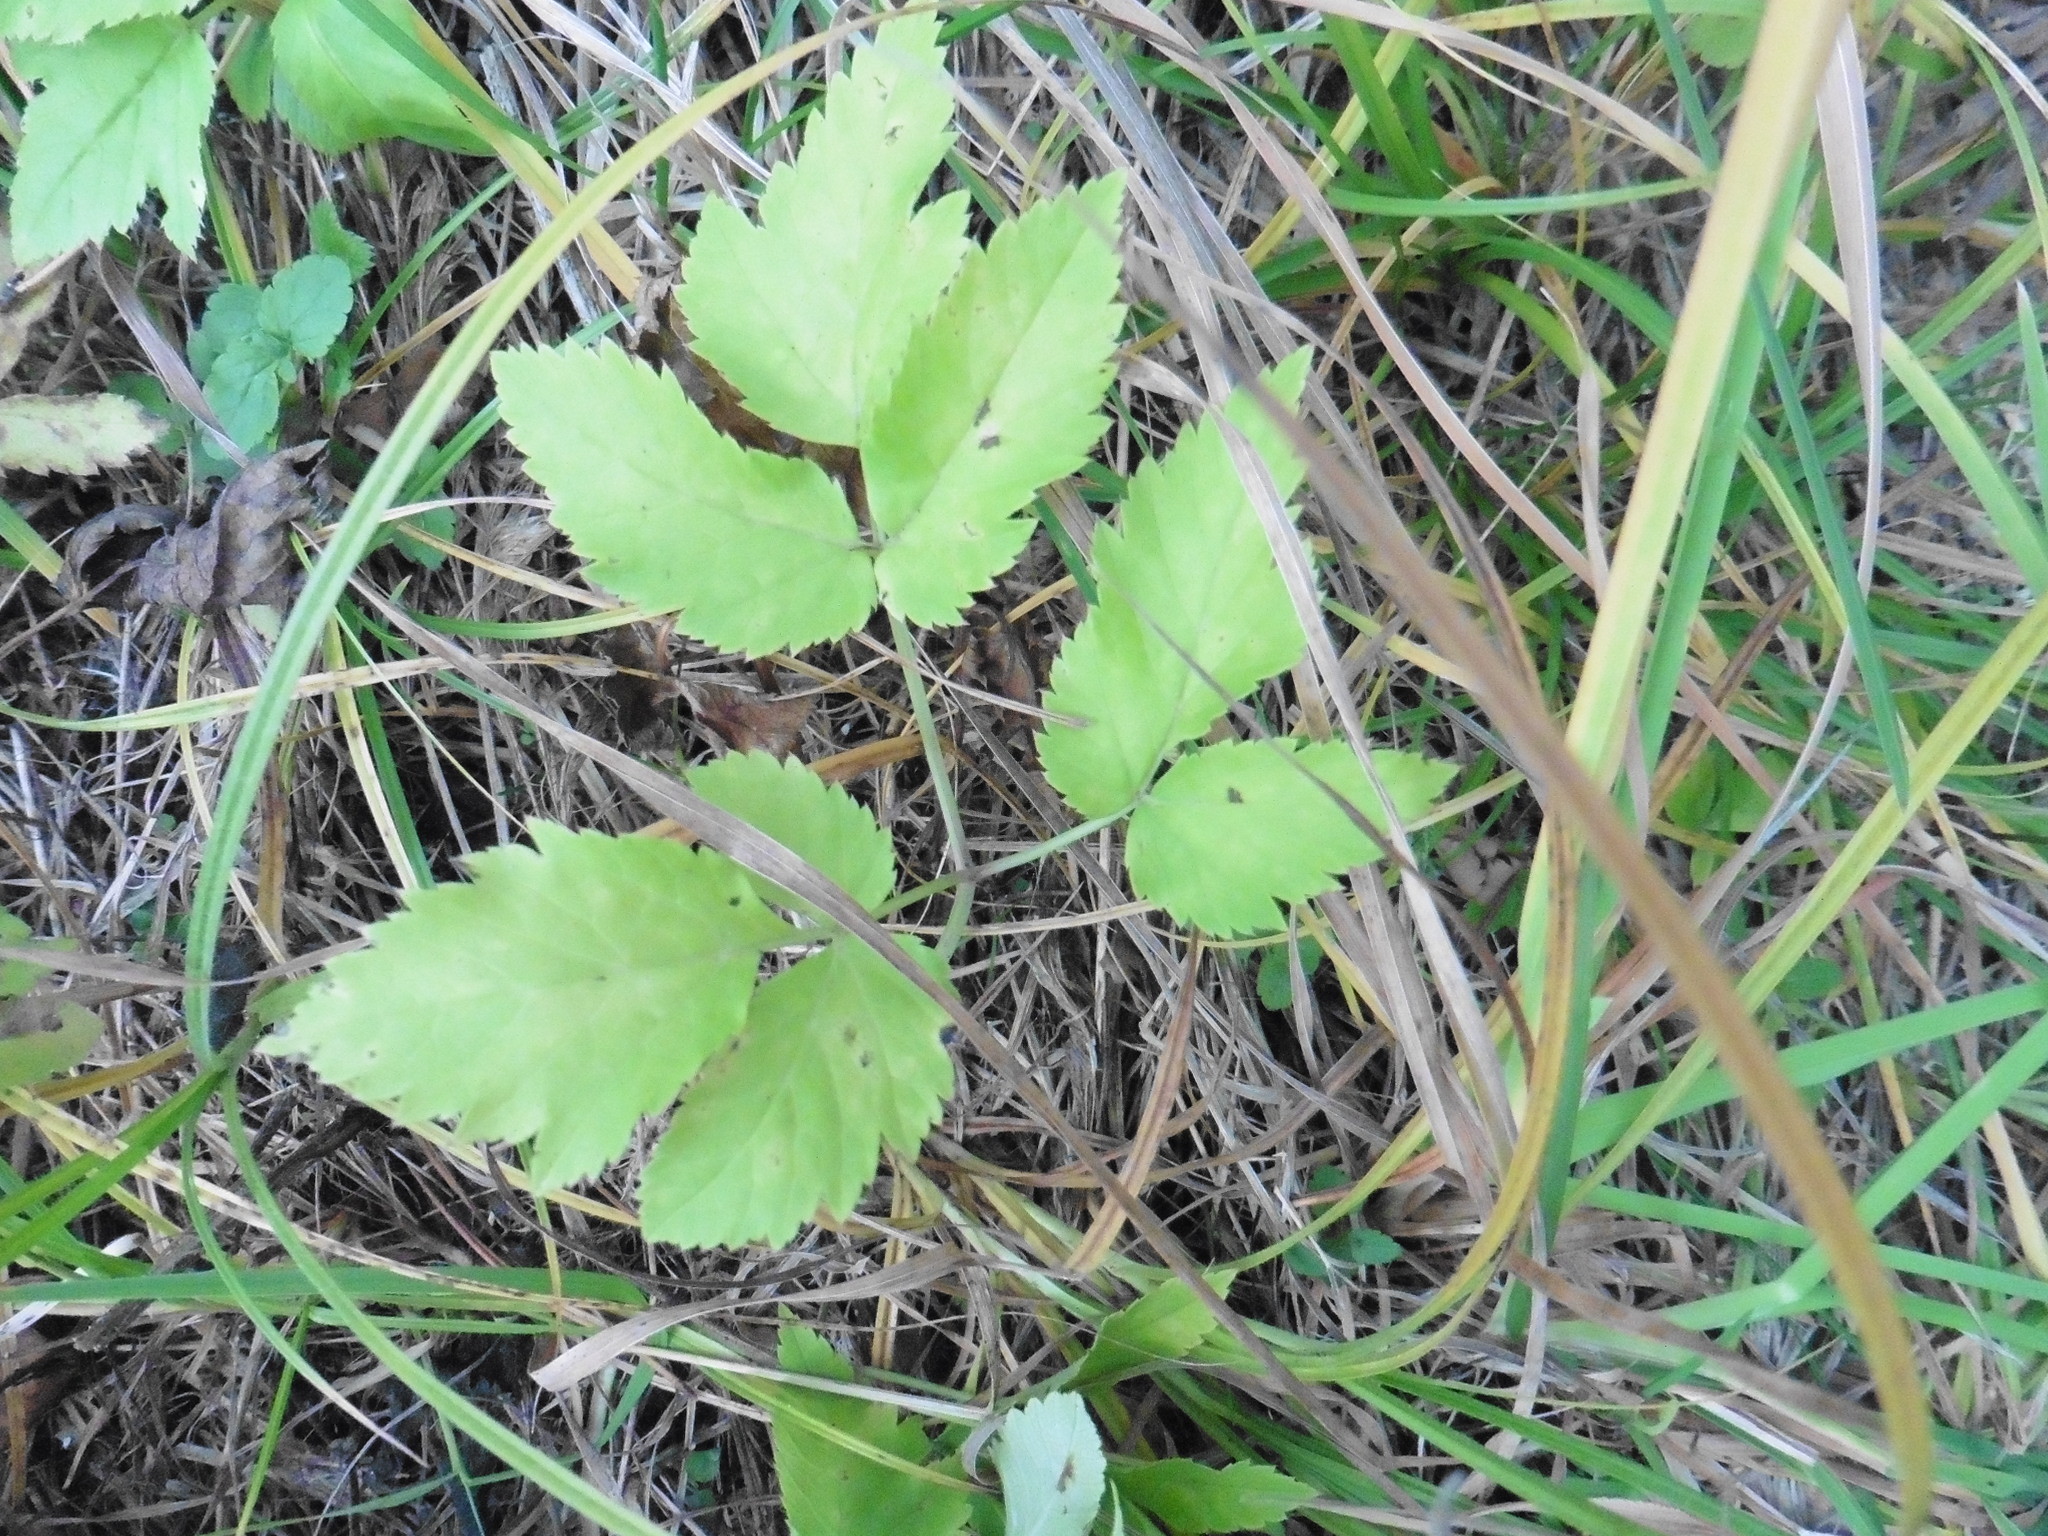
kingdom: Plantae
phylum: Tracheophyta
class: Magnoliopsida
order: Apiales
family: Apiaceae
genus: Aegopodium
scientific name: Aegopodium podagraria
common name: Ground-elder
